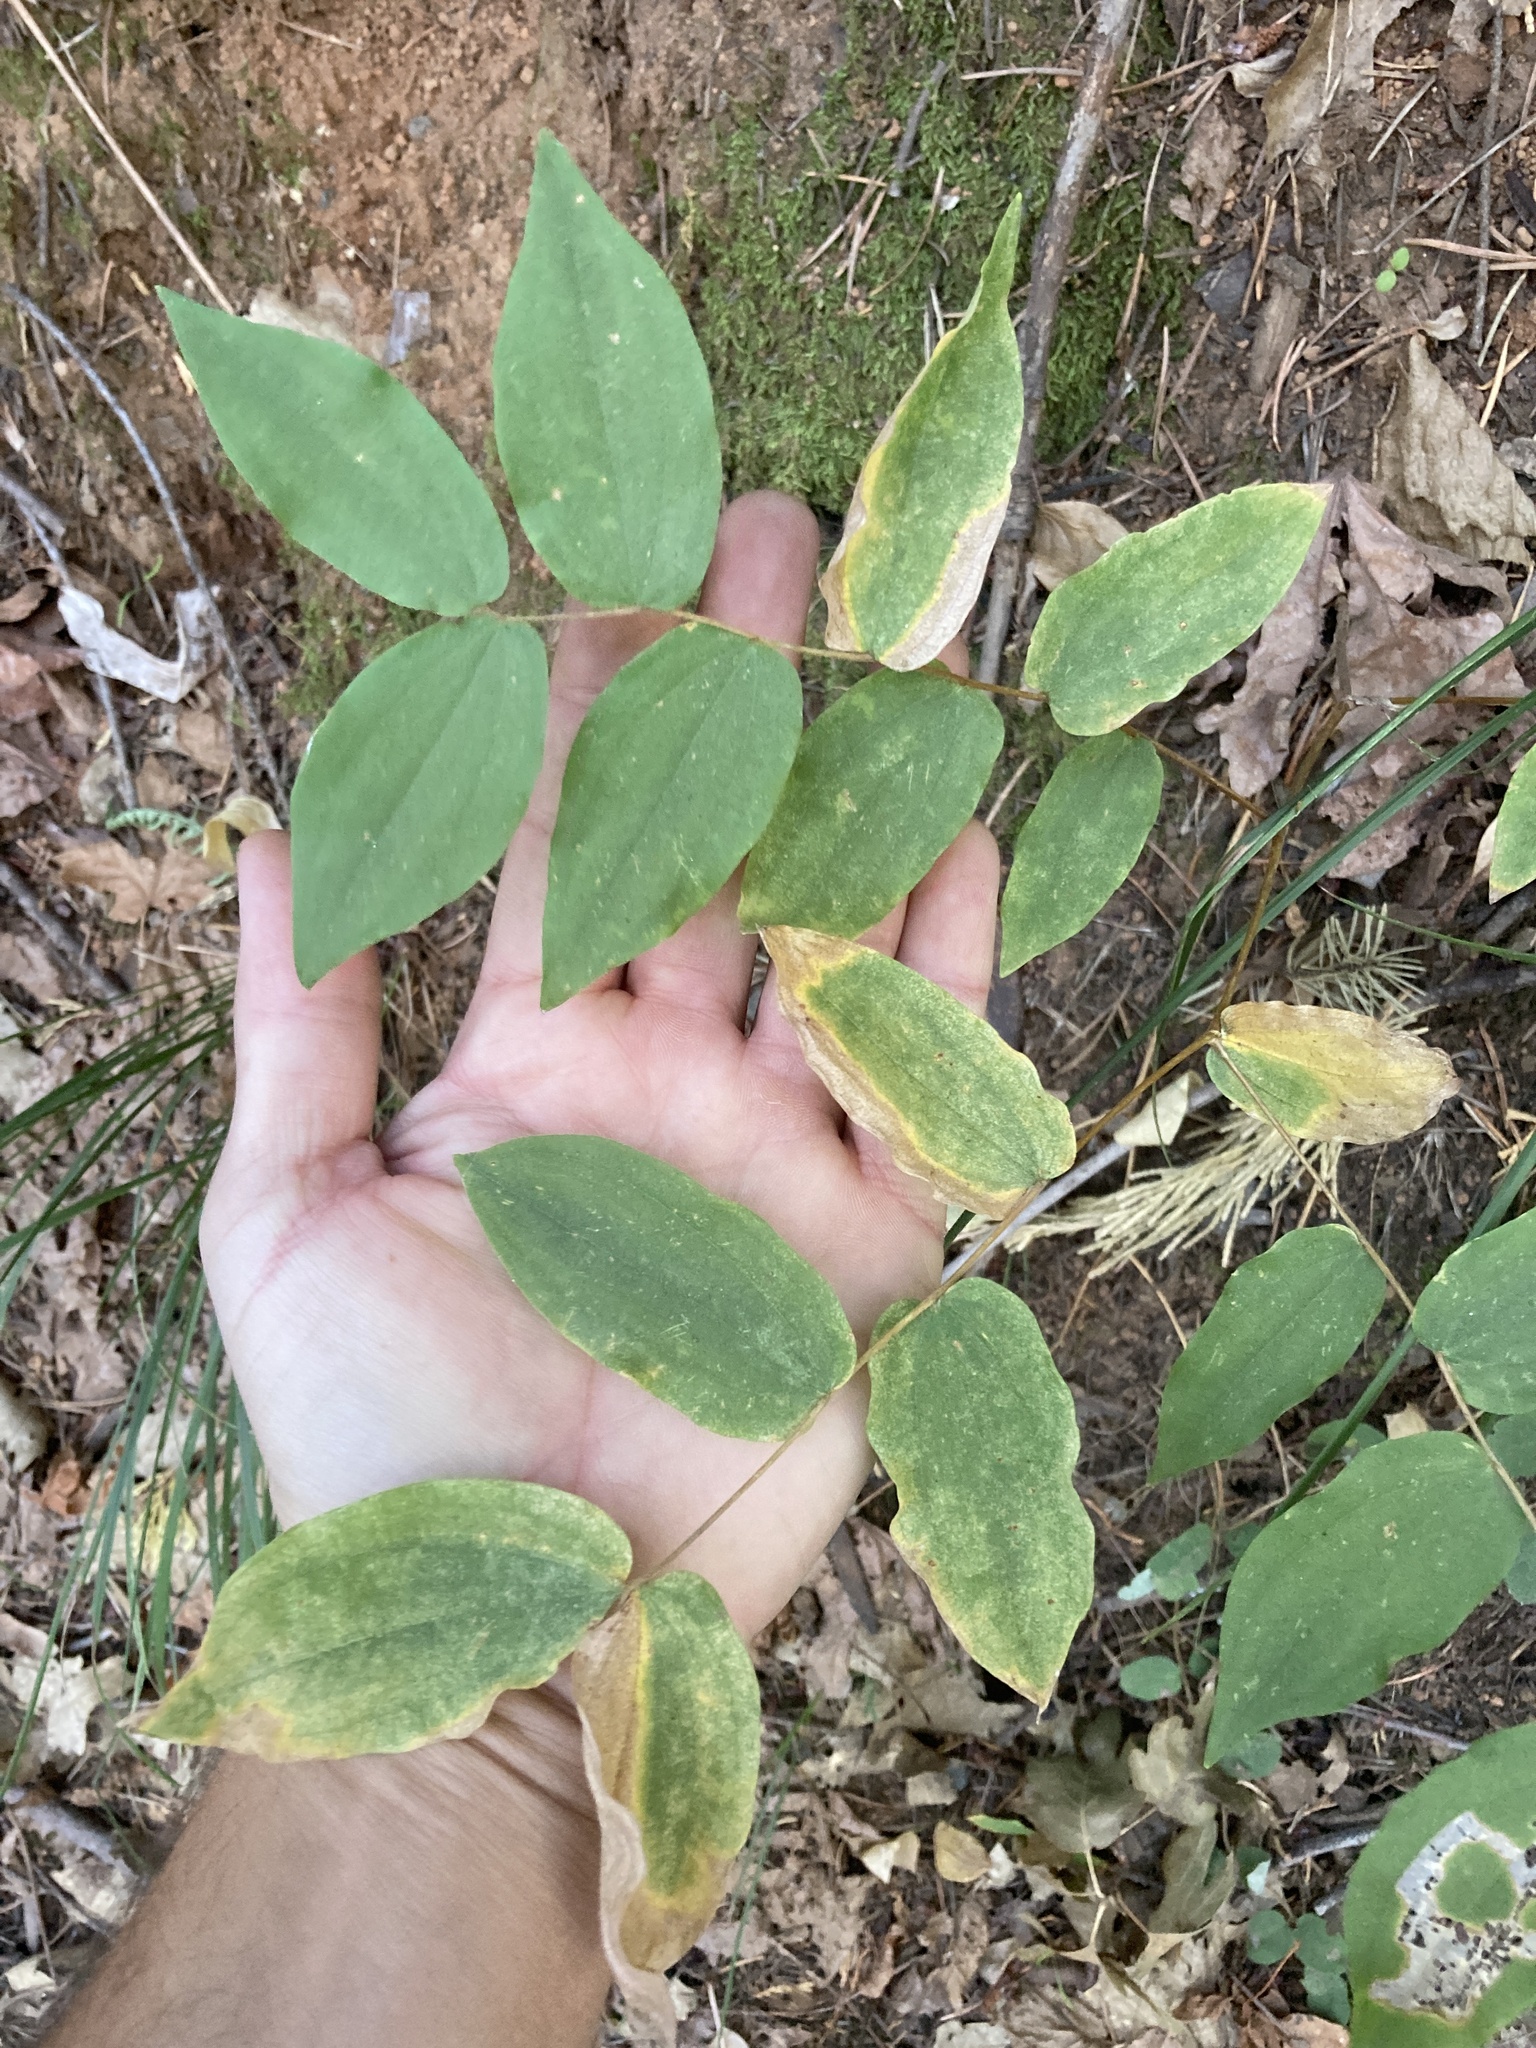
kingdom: Plantae
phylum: Tracheophyta
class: Liliopsida
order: Liliales
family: Liliaceae
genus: Prosartes
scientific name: Prosartes hookeri
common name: Fairy-bells
